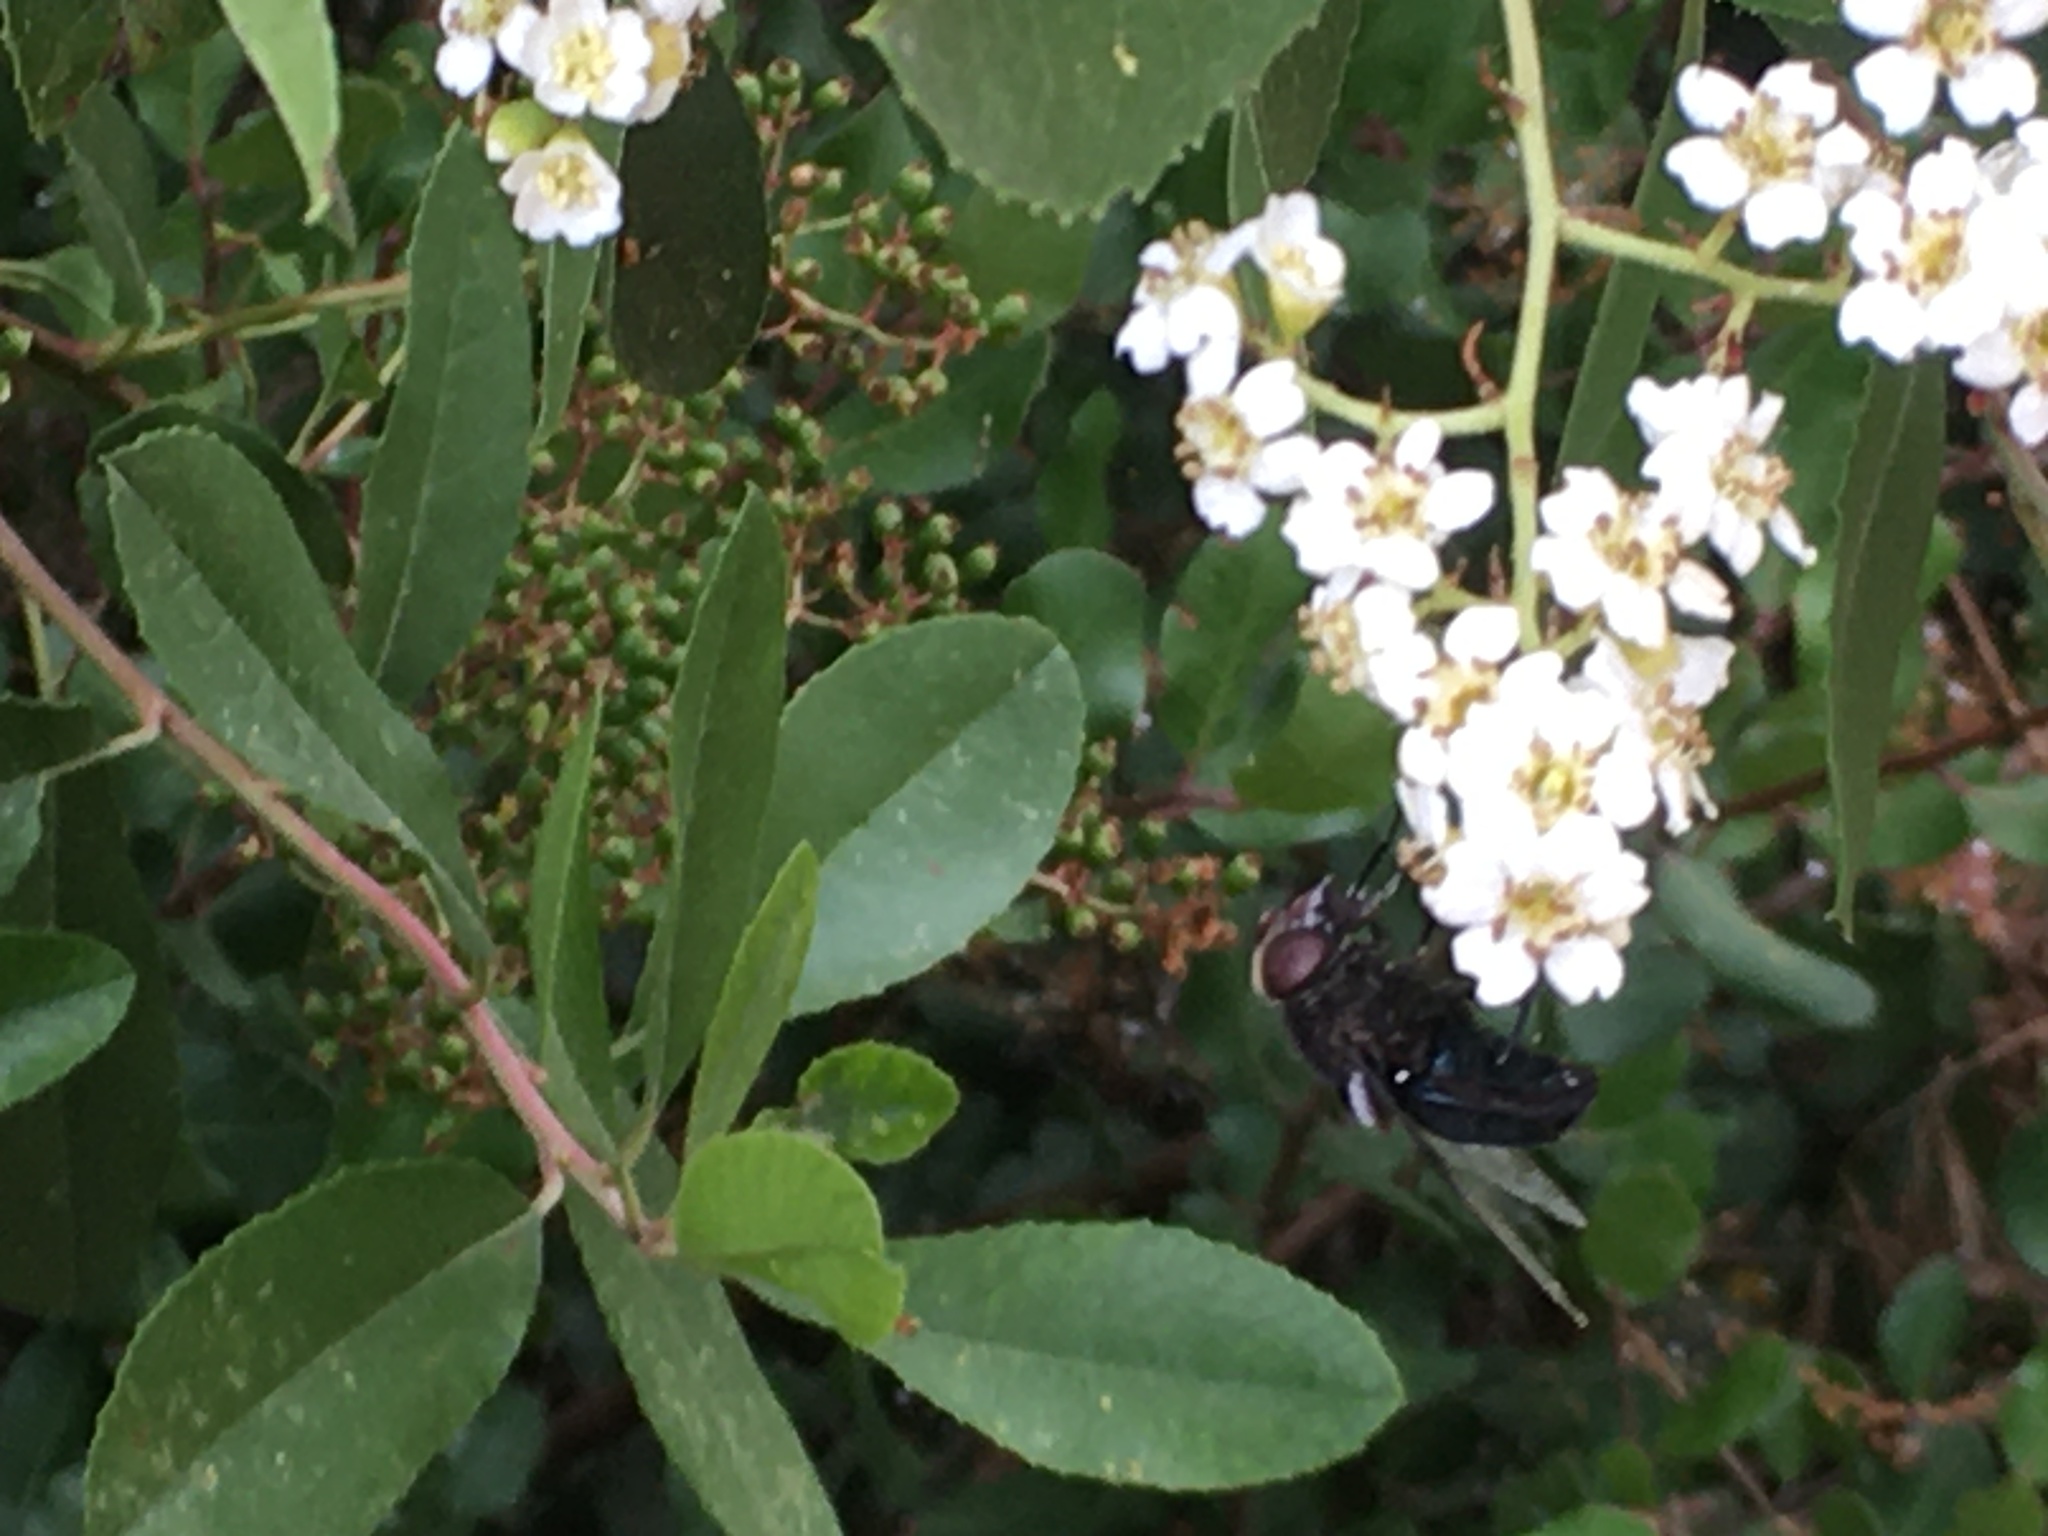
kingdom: Animalia
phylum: Arthropoda
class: Insecta
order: Diptera
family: Syrphidae
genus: Copestylum
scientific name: Copestylum mexicanum
